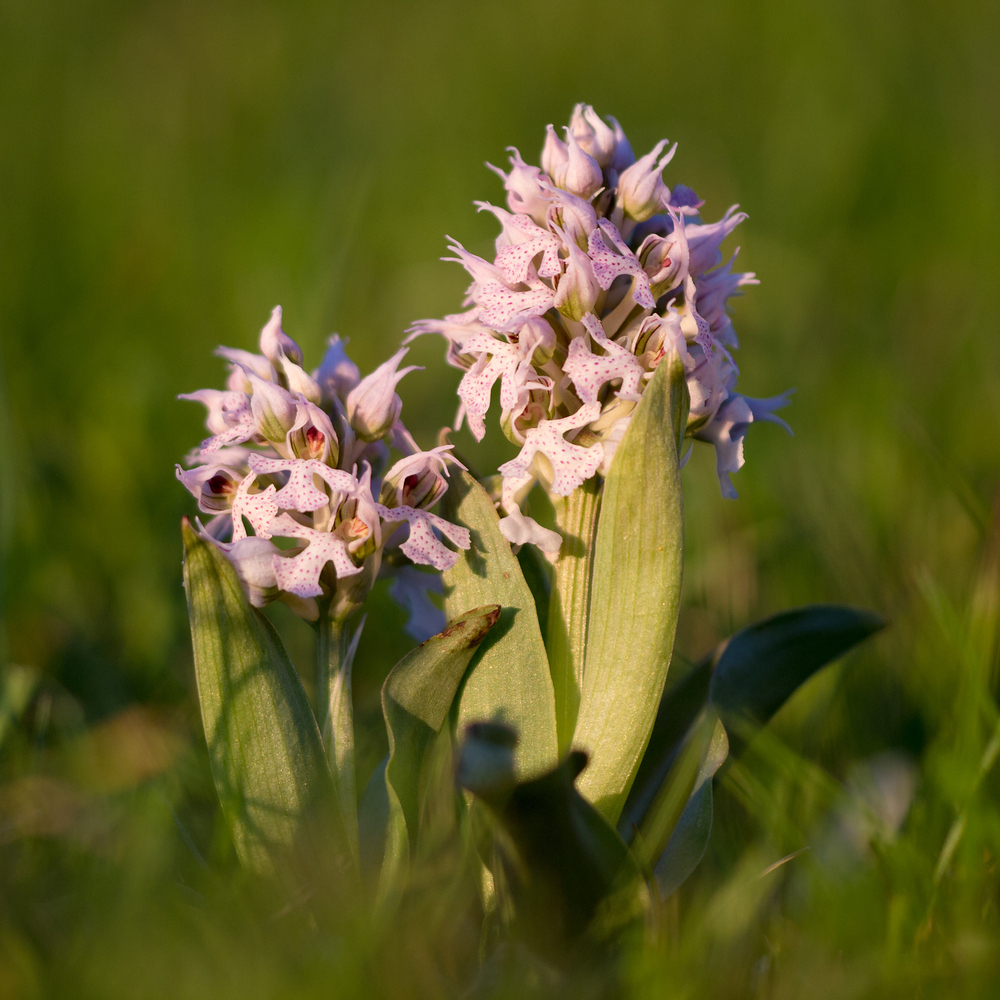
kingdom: Plantae
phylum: Tracheophyta
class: Liliopsida
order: Asparagales
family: Orchidaceae
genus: Neotinea
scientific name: Neotinea conica
